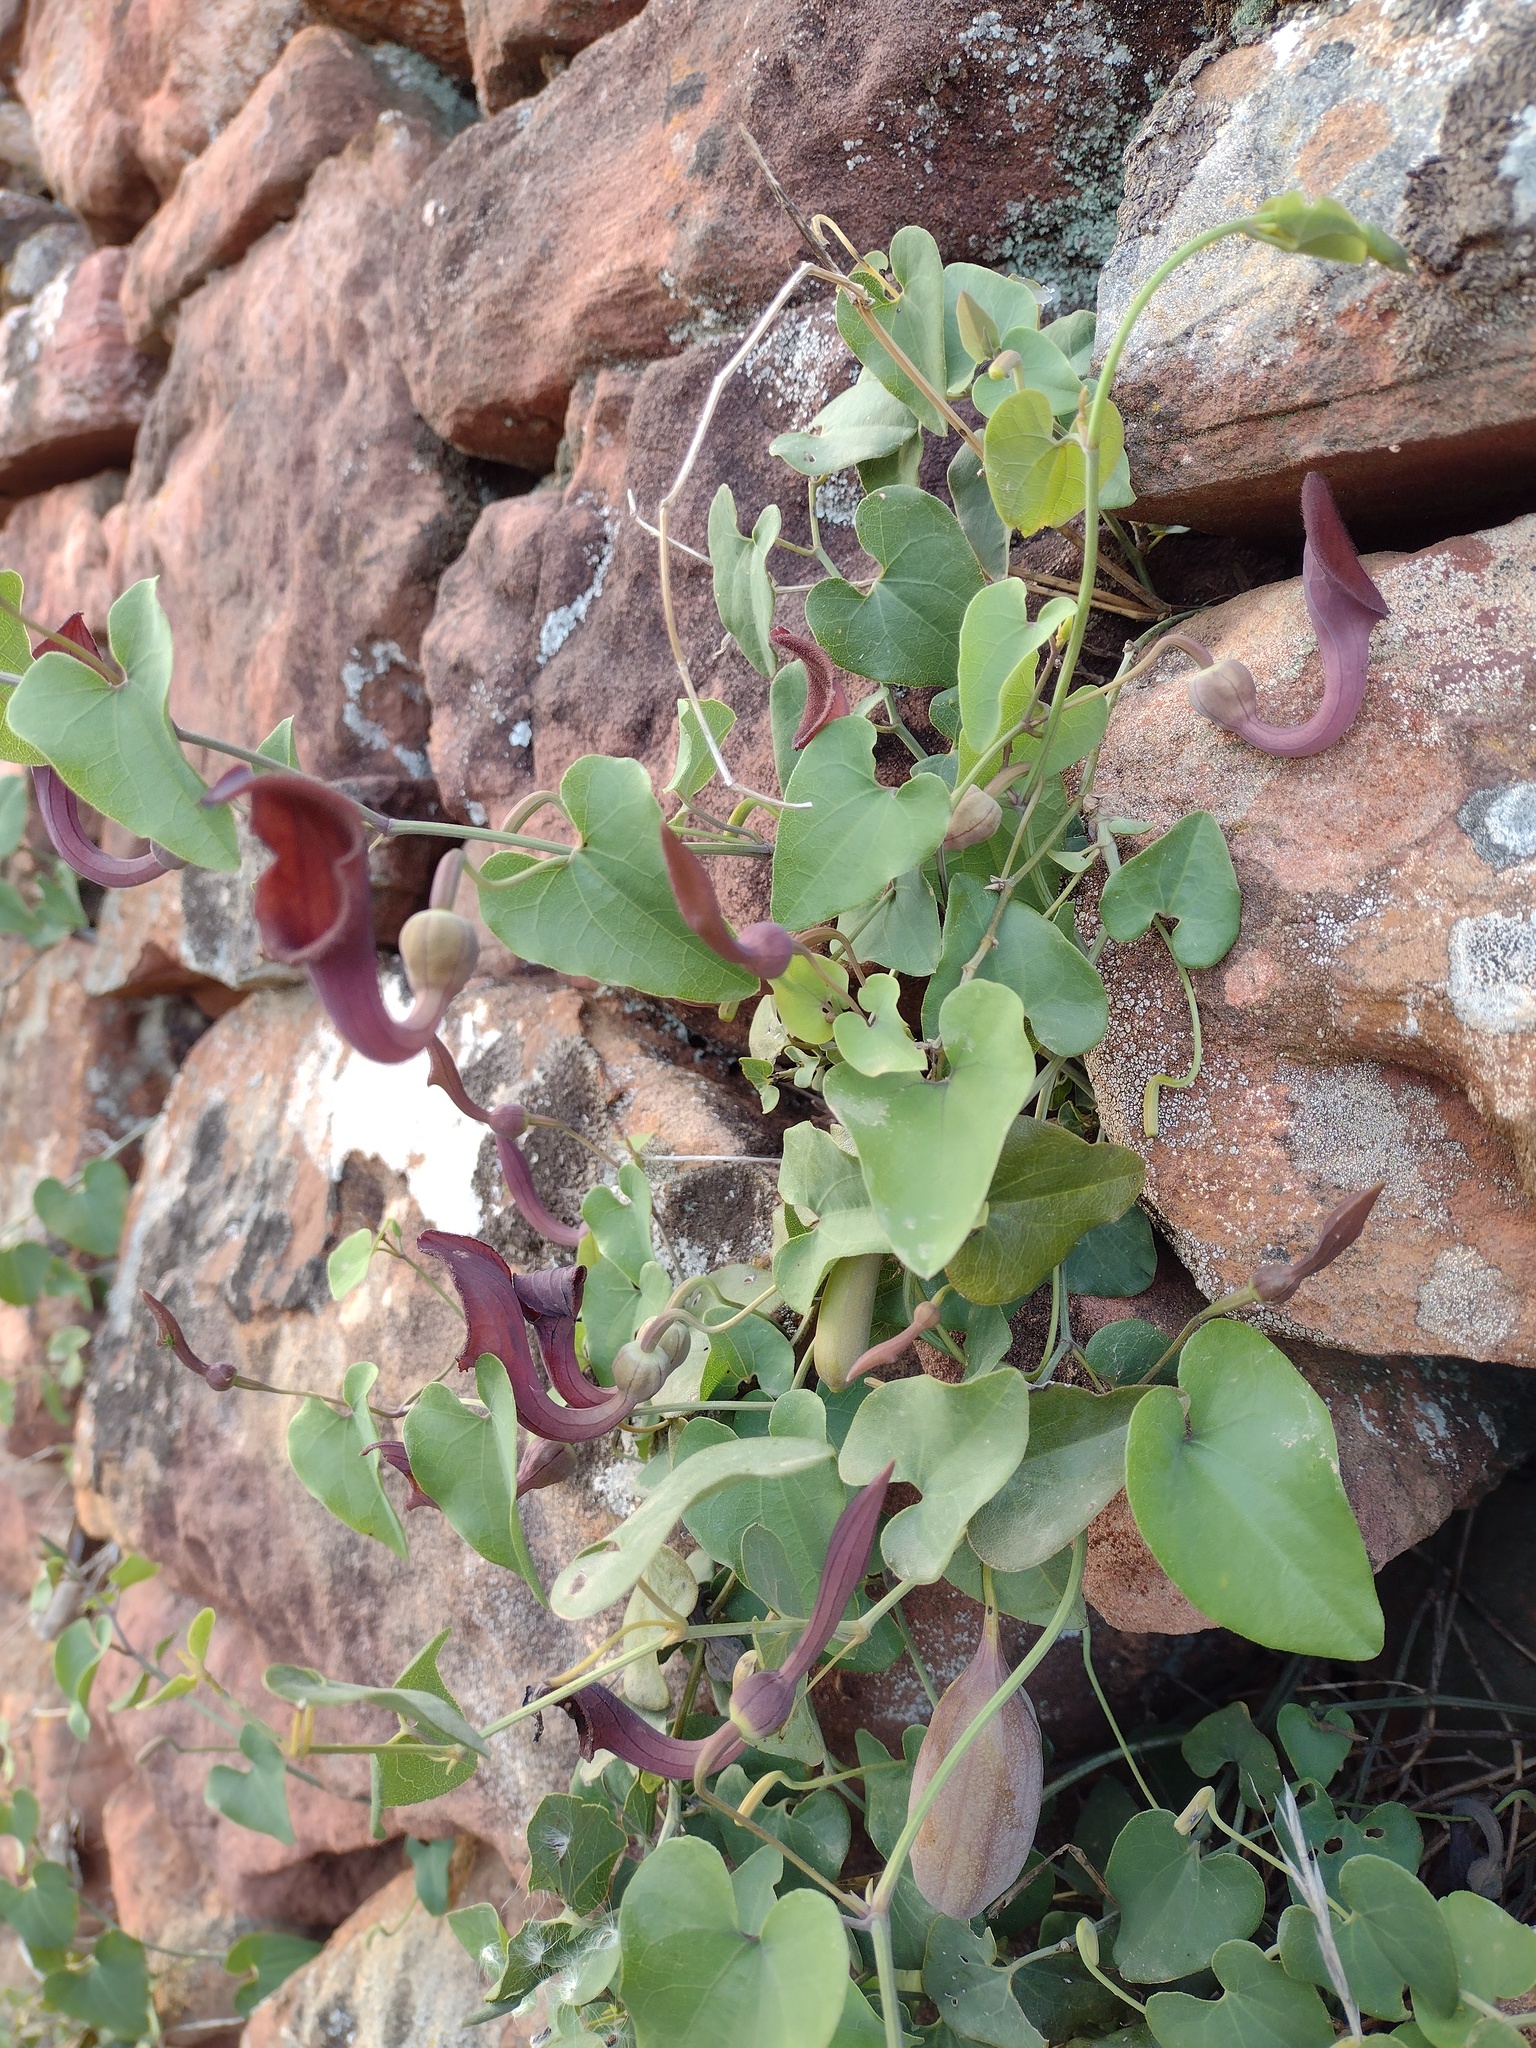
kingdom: Plantae
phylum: Tracheophyta
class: Magnoliopsida
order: Piperales
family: Aristolochiaceae
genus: Aristolochia
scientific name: Aristolochia baetica
